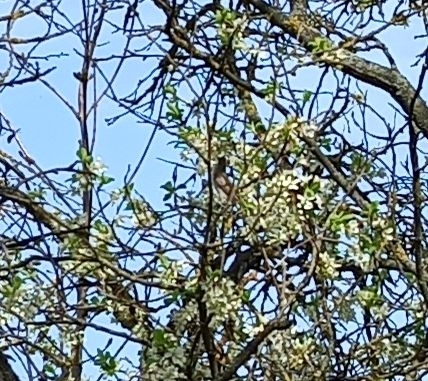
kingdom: Animalia
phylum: Chordata
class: Aves
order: Passeriformes
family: Sylviidae
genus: Sylvia
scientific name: Sylvia curruca
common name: Lesser whitethroat
